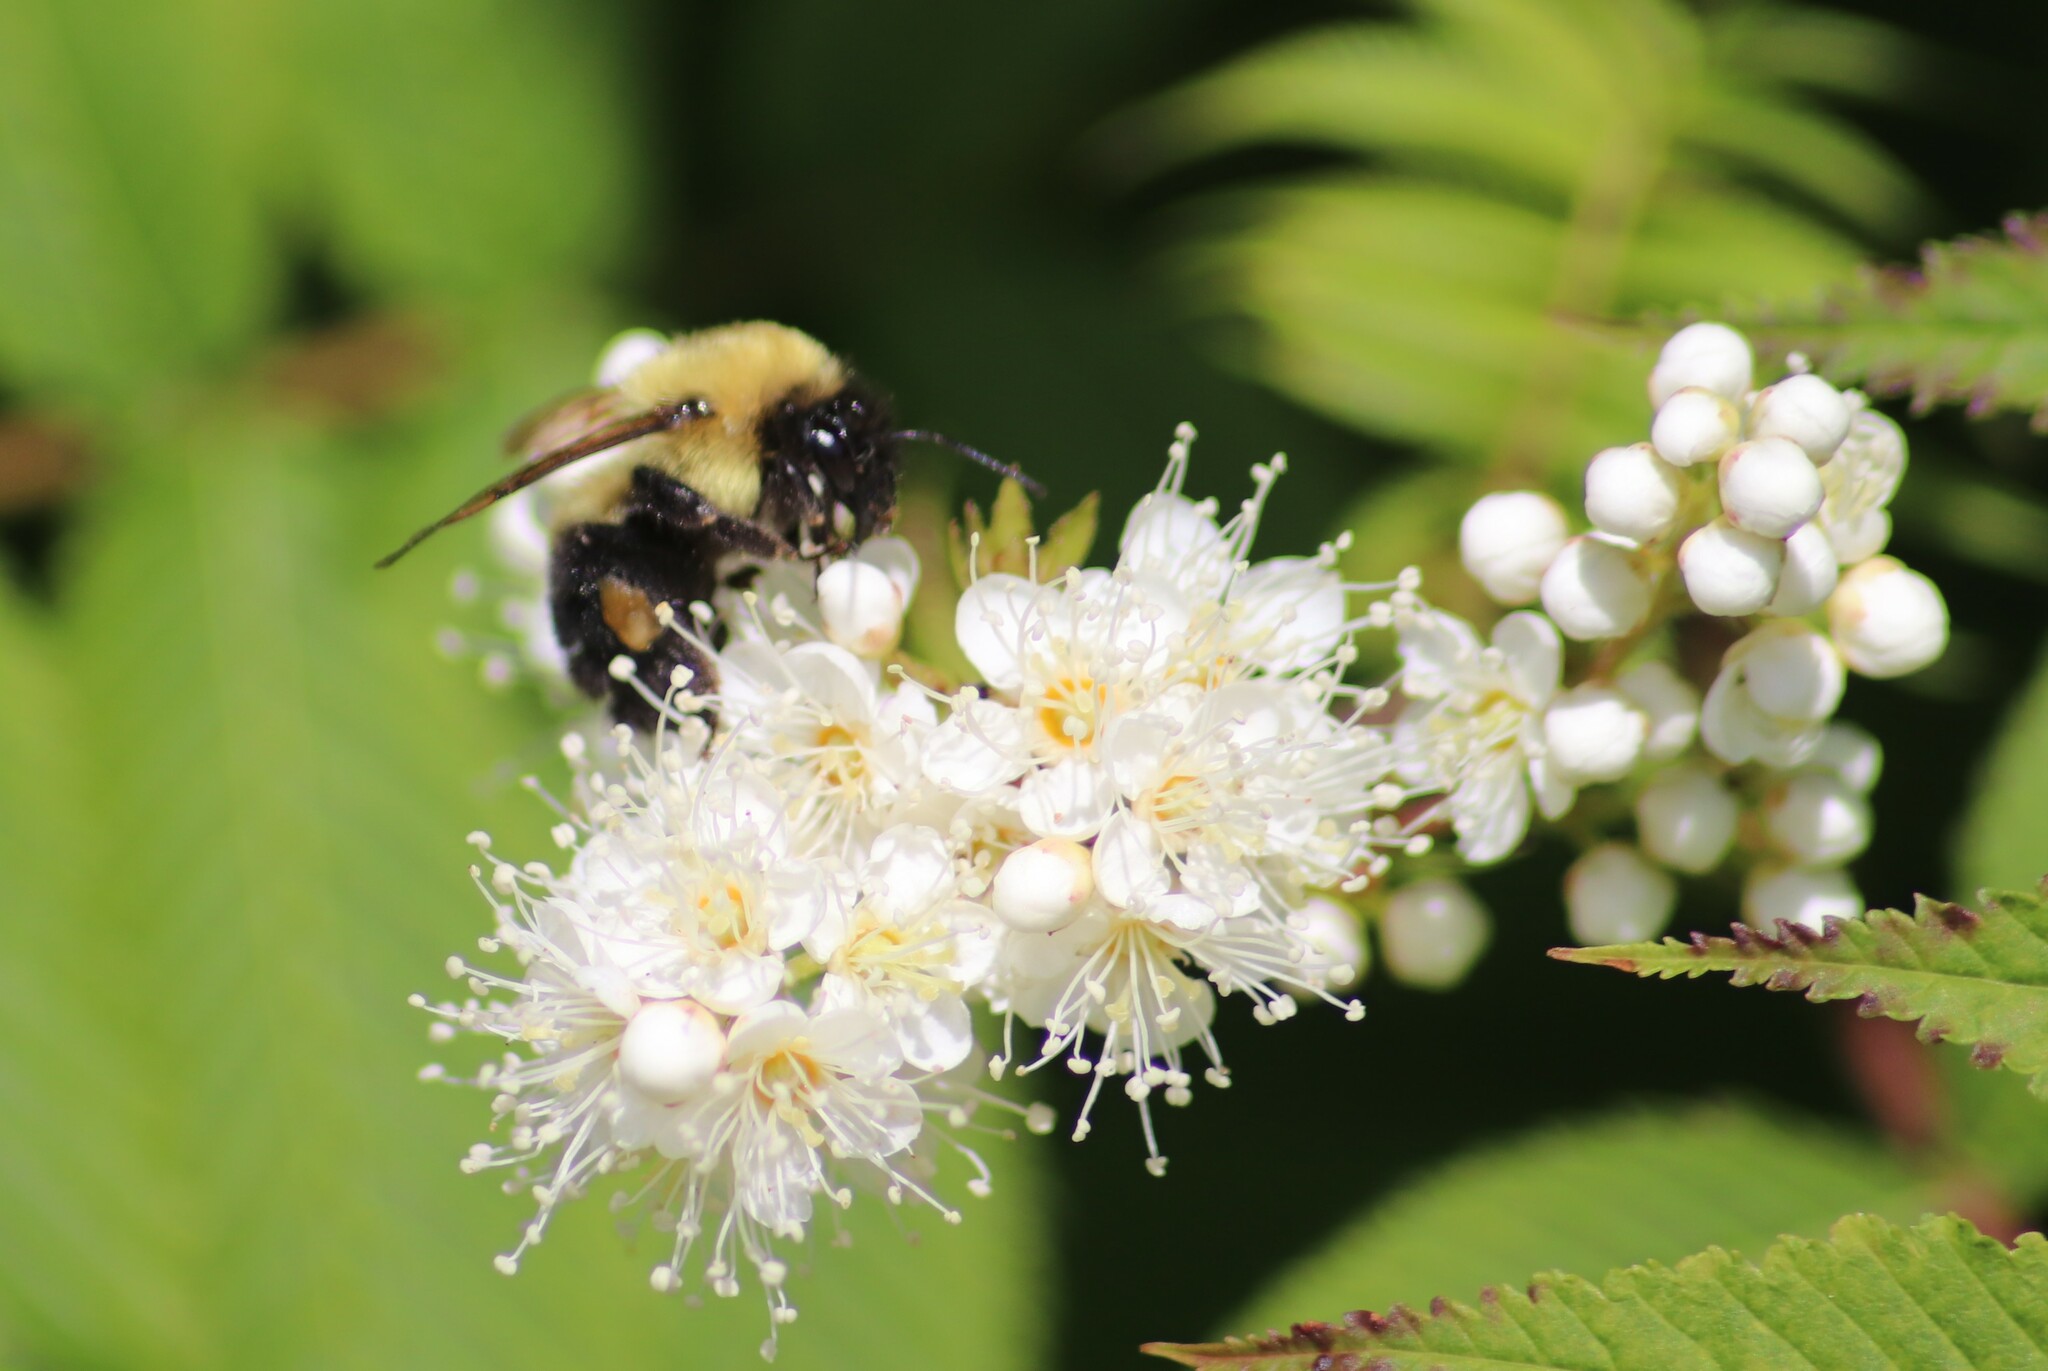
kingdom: Animalia
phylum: Arthropoda
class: Insecta
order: Hymenoptera
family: Apidae
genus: Bombus
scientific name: Bombus bimaculatus
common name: Two-spotted bumble bee
